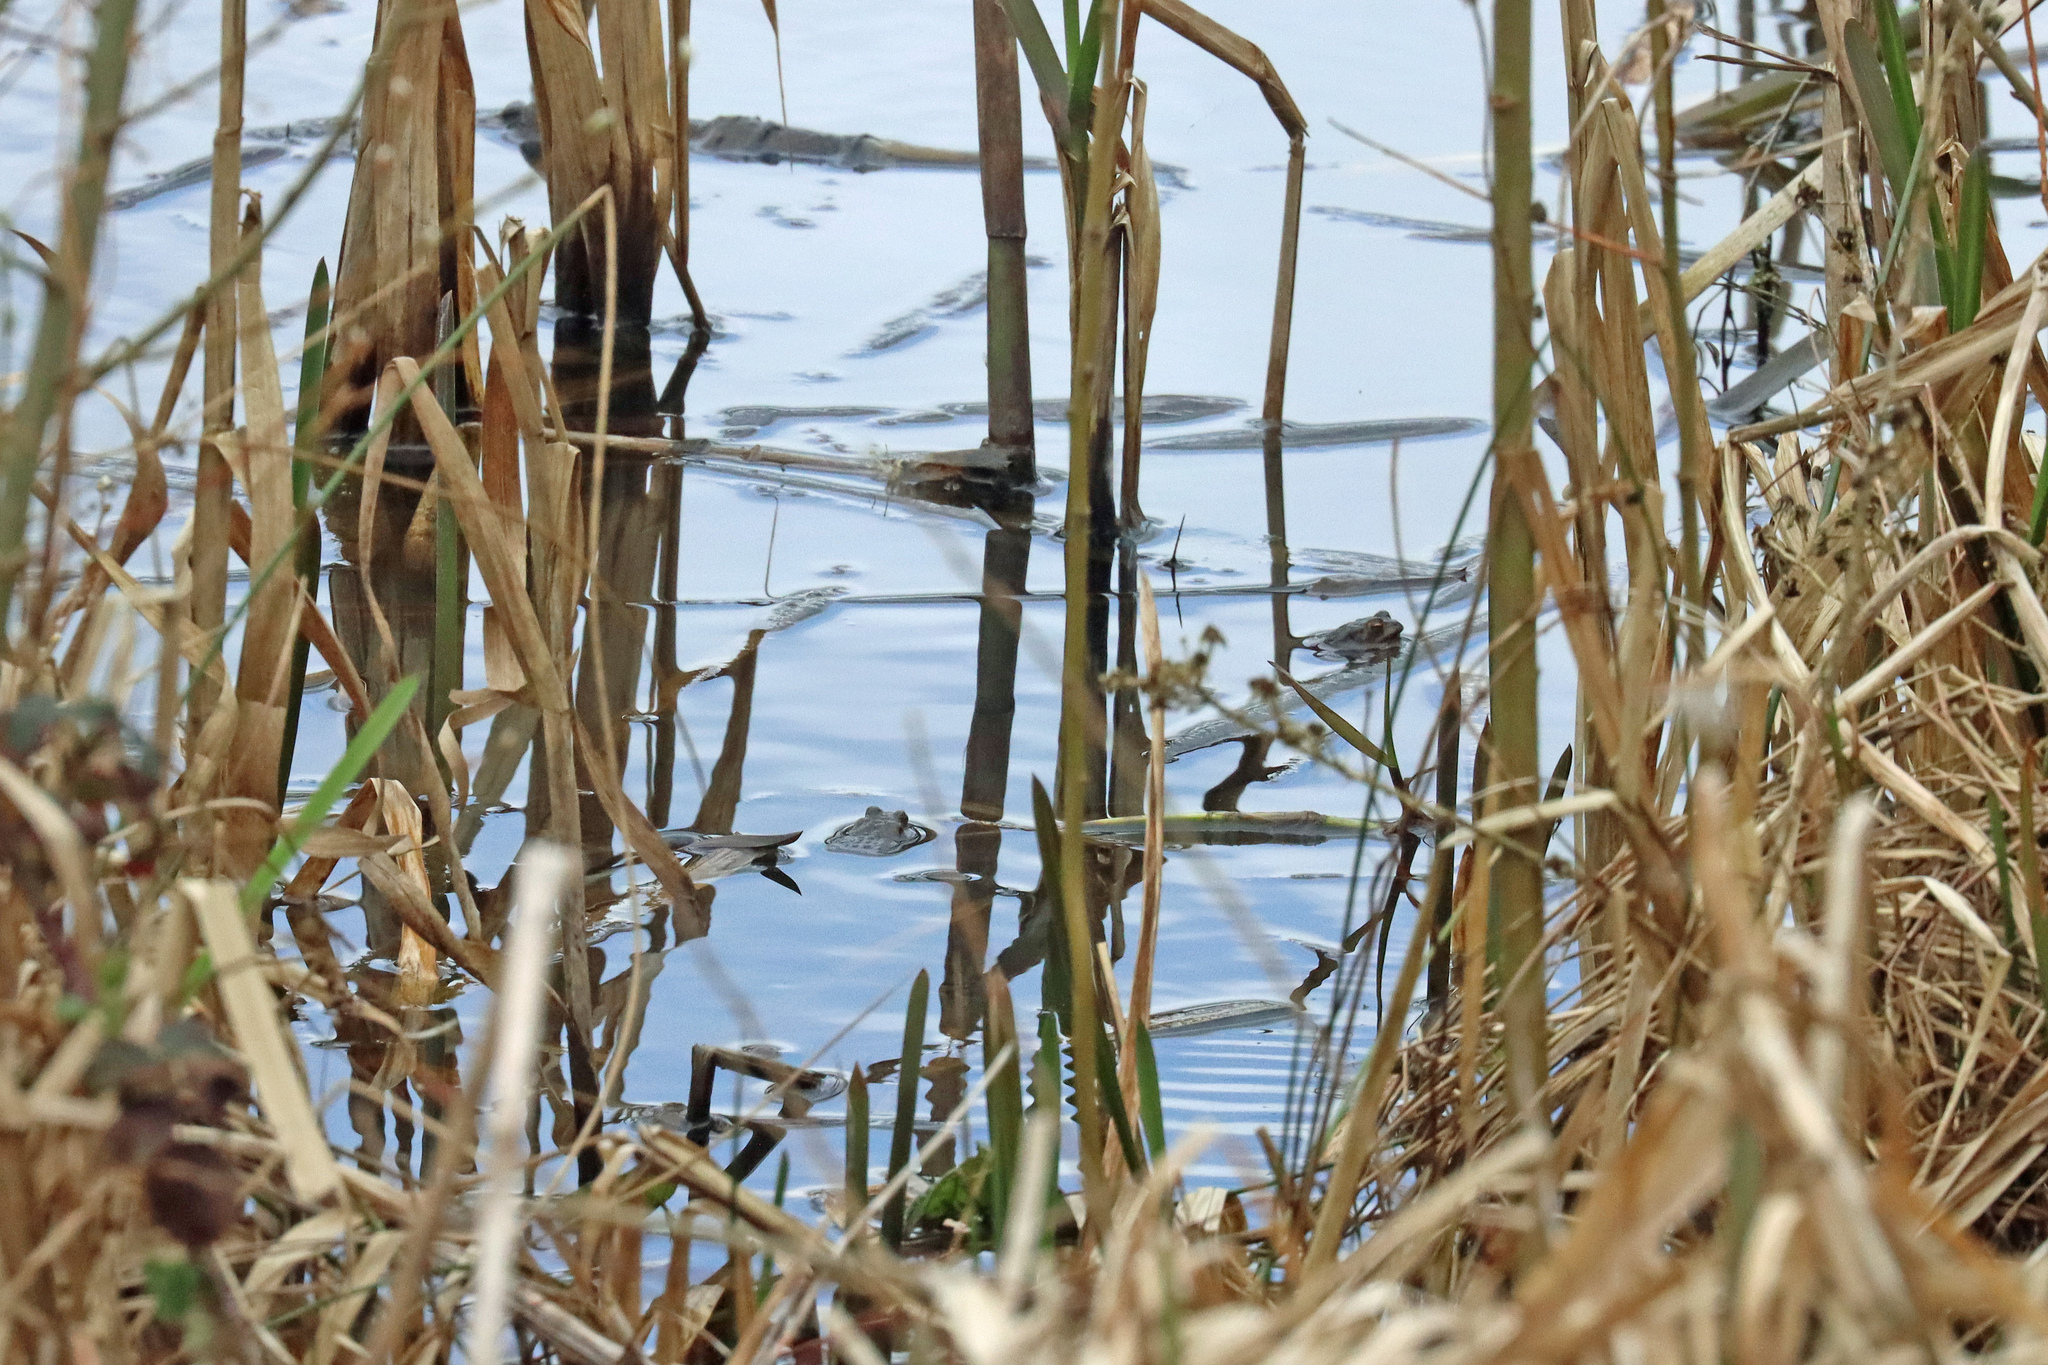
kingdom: Animalia
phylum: Chordata
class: Amphibia
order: Anura
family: Bufonidae
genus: Bufo
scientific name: Bufo bufo
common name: Common toad
